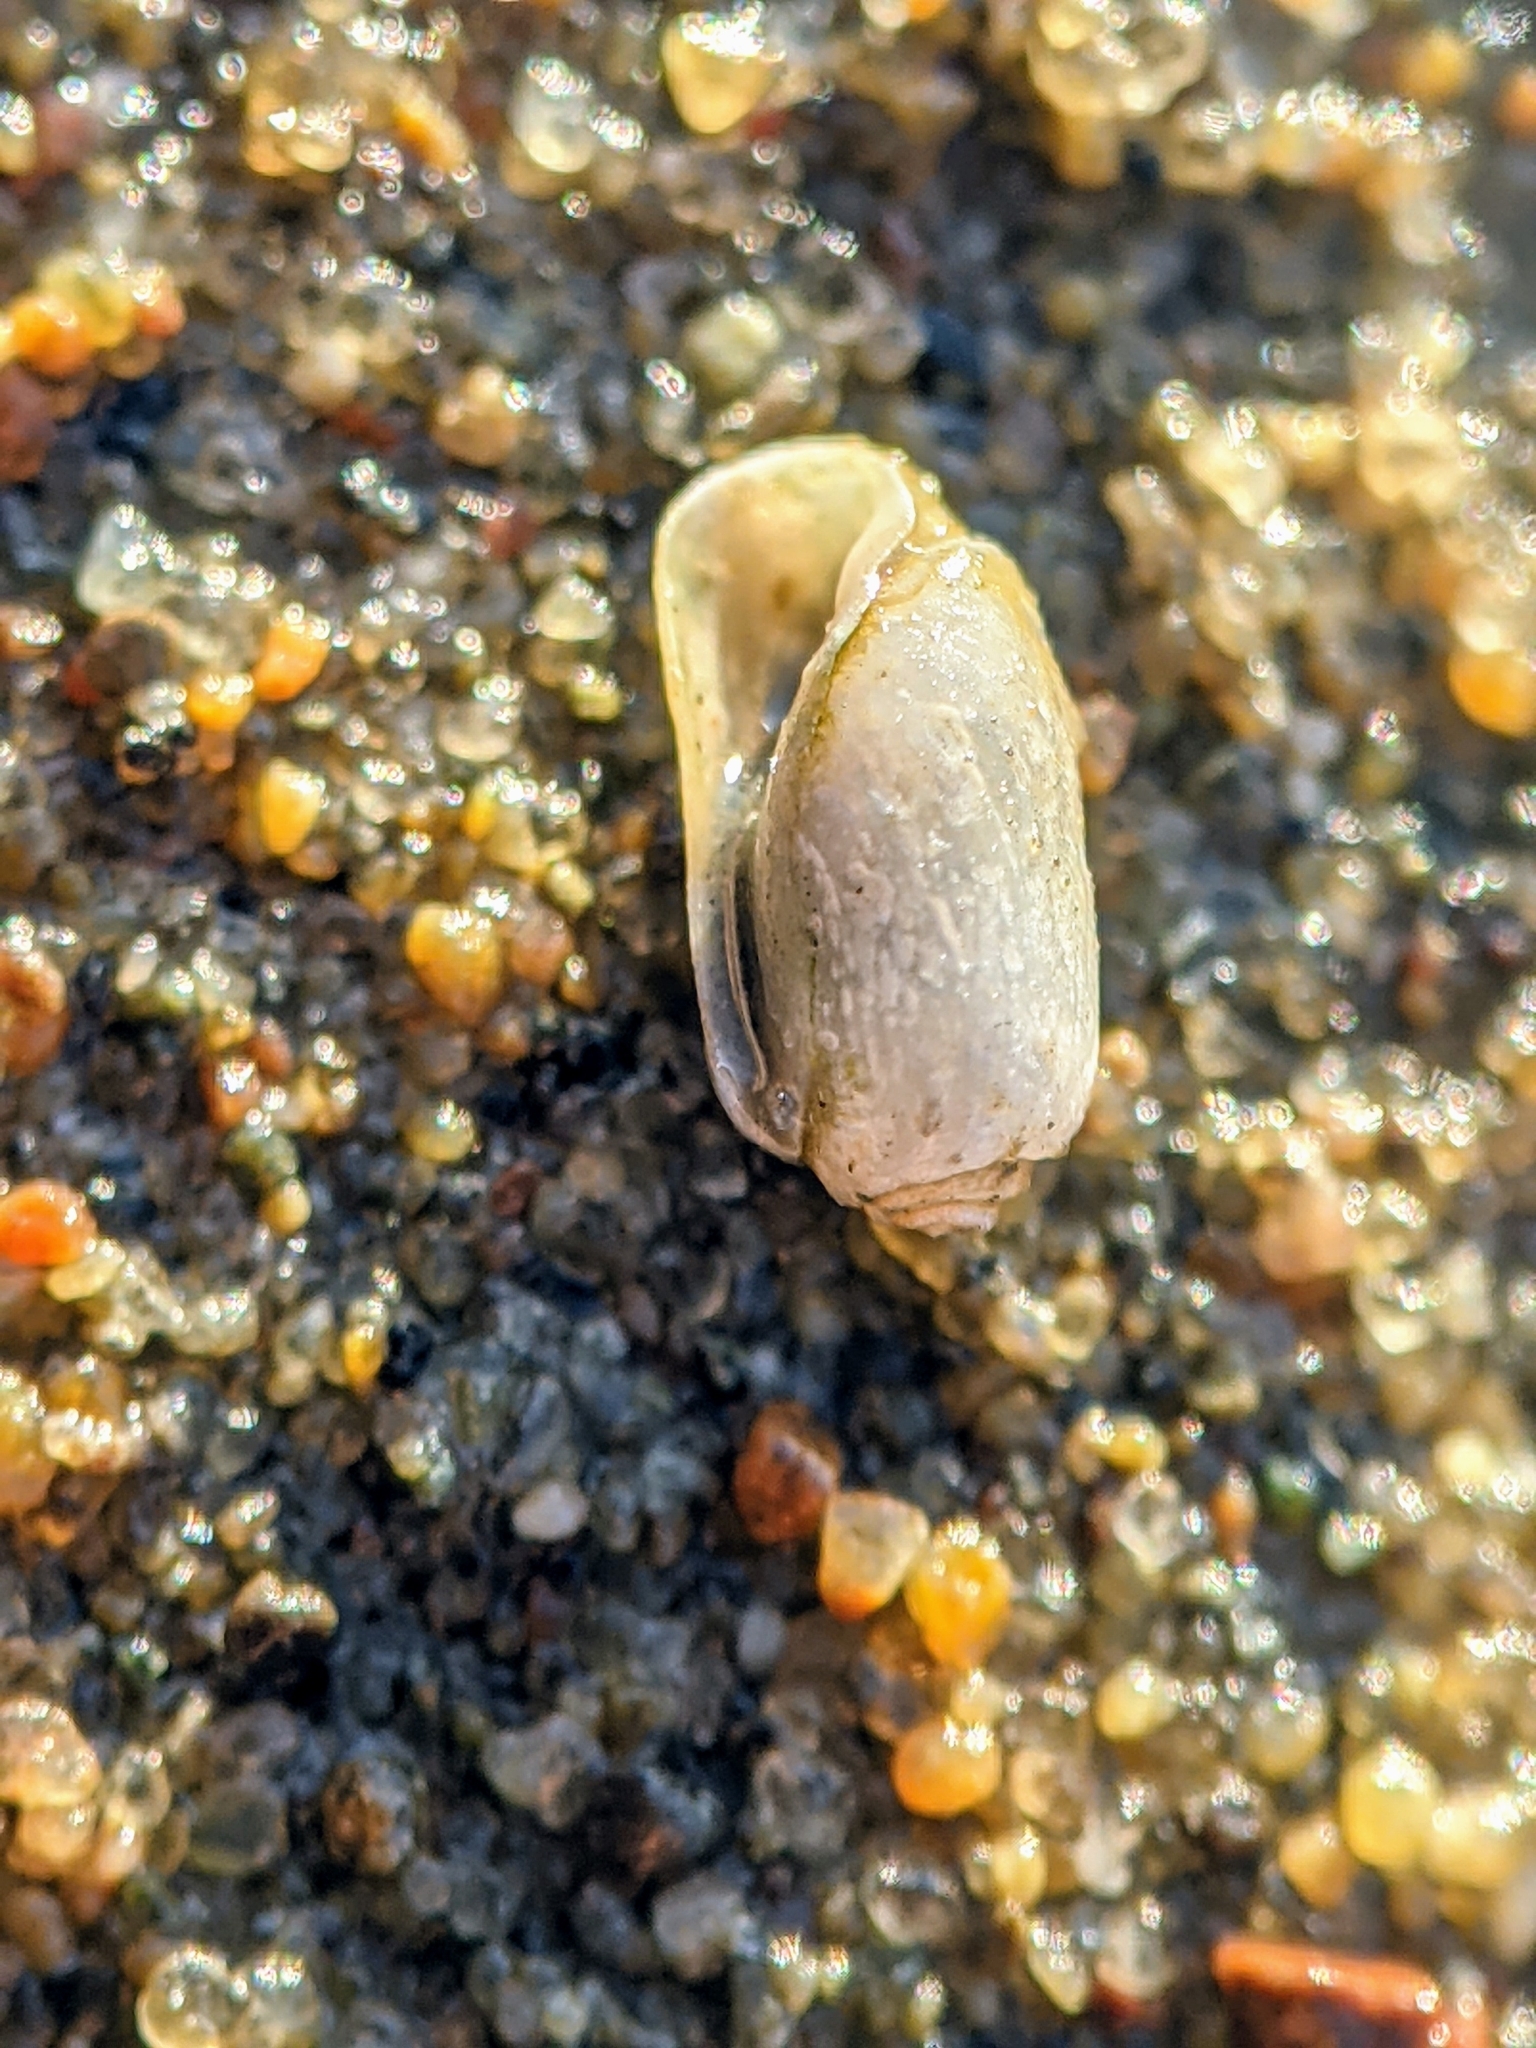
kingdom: Animalia
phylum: Mollusca
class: Gastropoda
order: Cephalaspidea
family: Tornatinidae
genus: Acteocina
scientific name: Acteocina inculta
